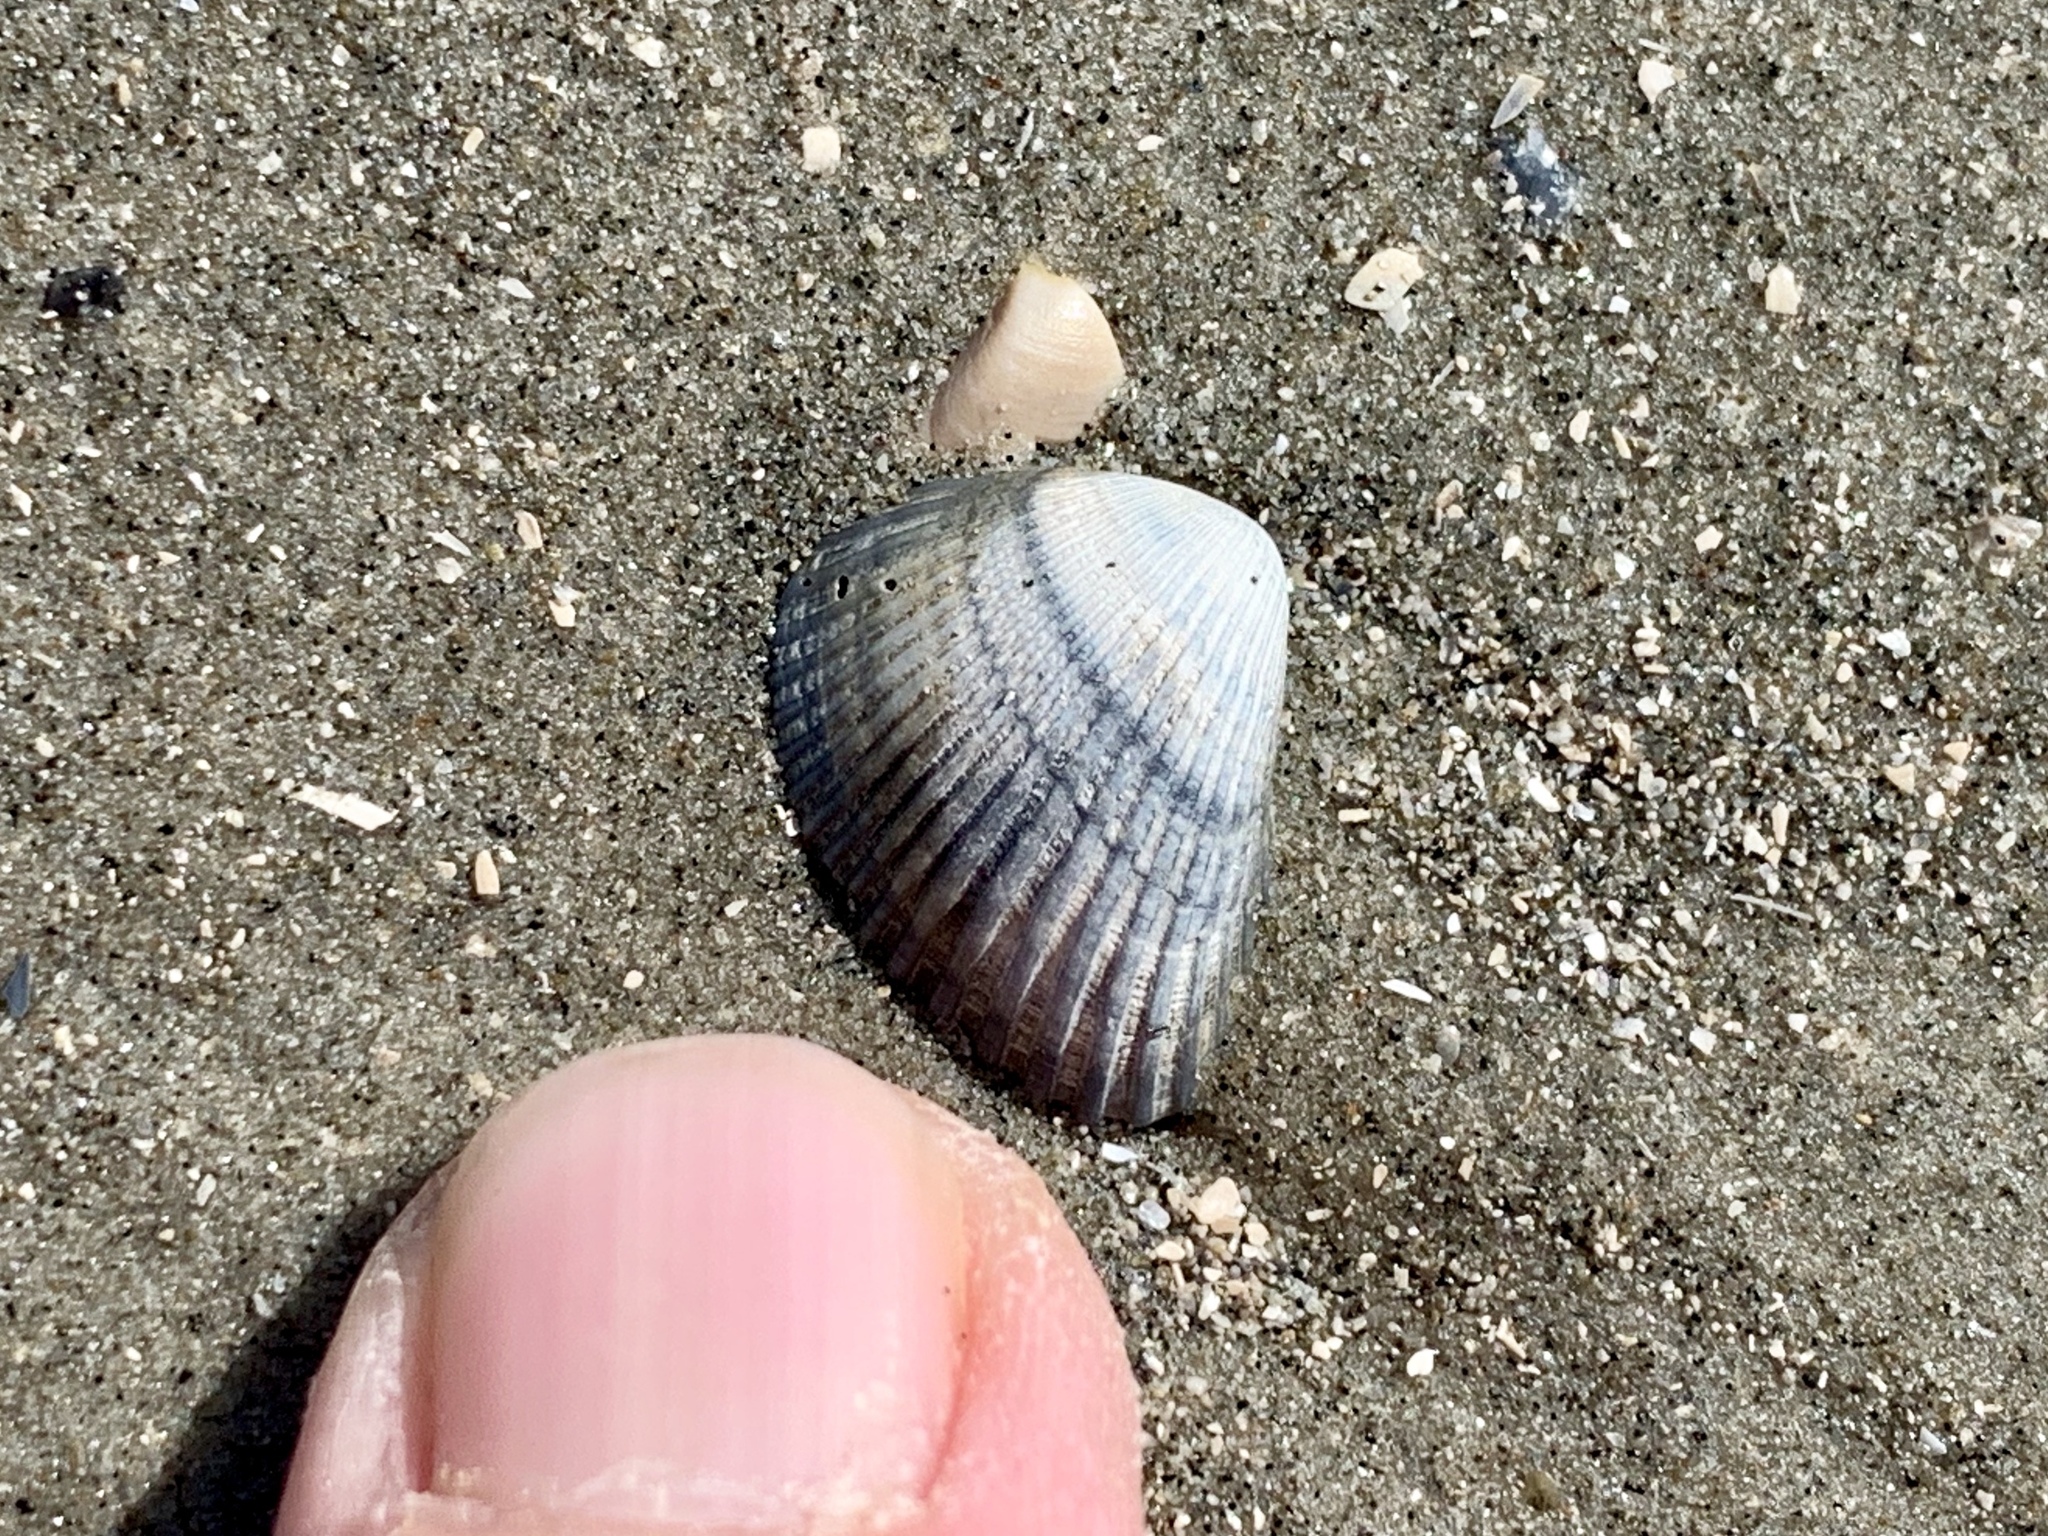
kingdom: Animalia
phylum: Mollusca
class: Bivalvia
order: Arcida
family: Noetiidae
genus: Noetia
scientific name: Noetia ponderosa
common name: Ponderous ark
